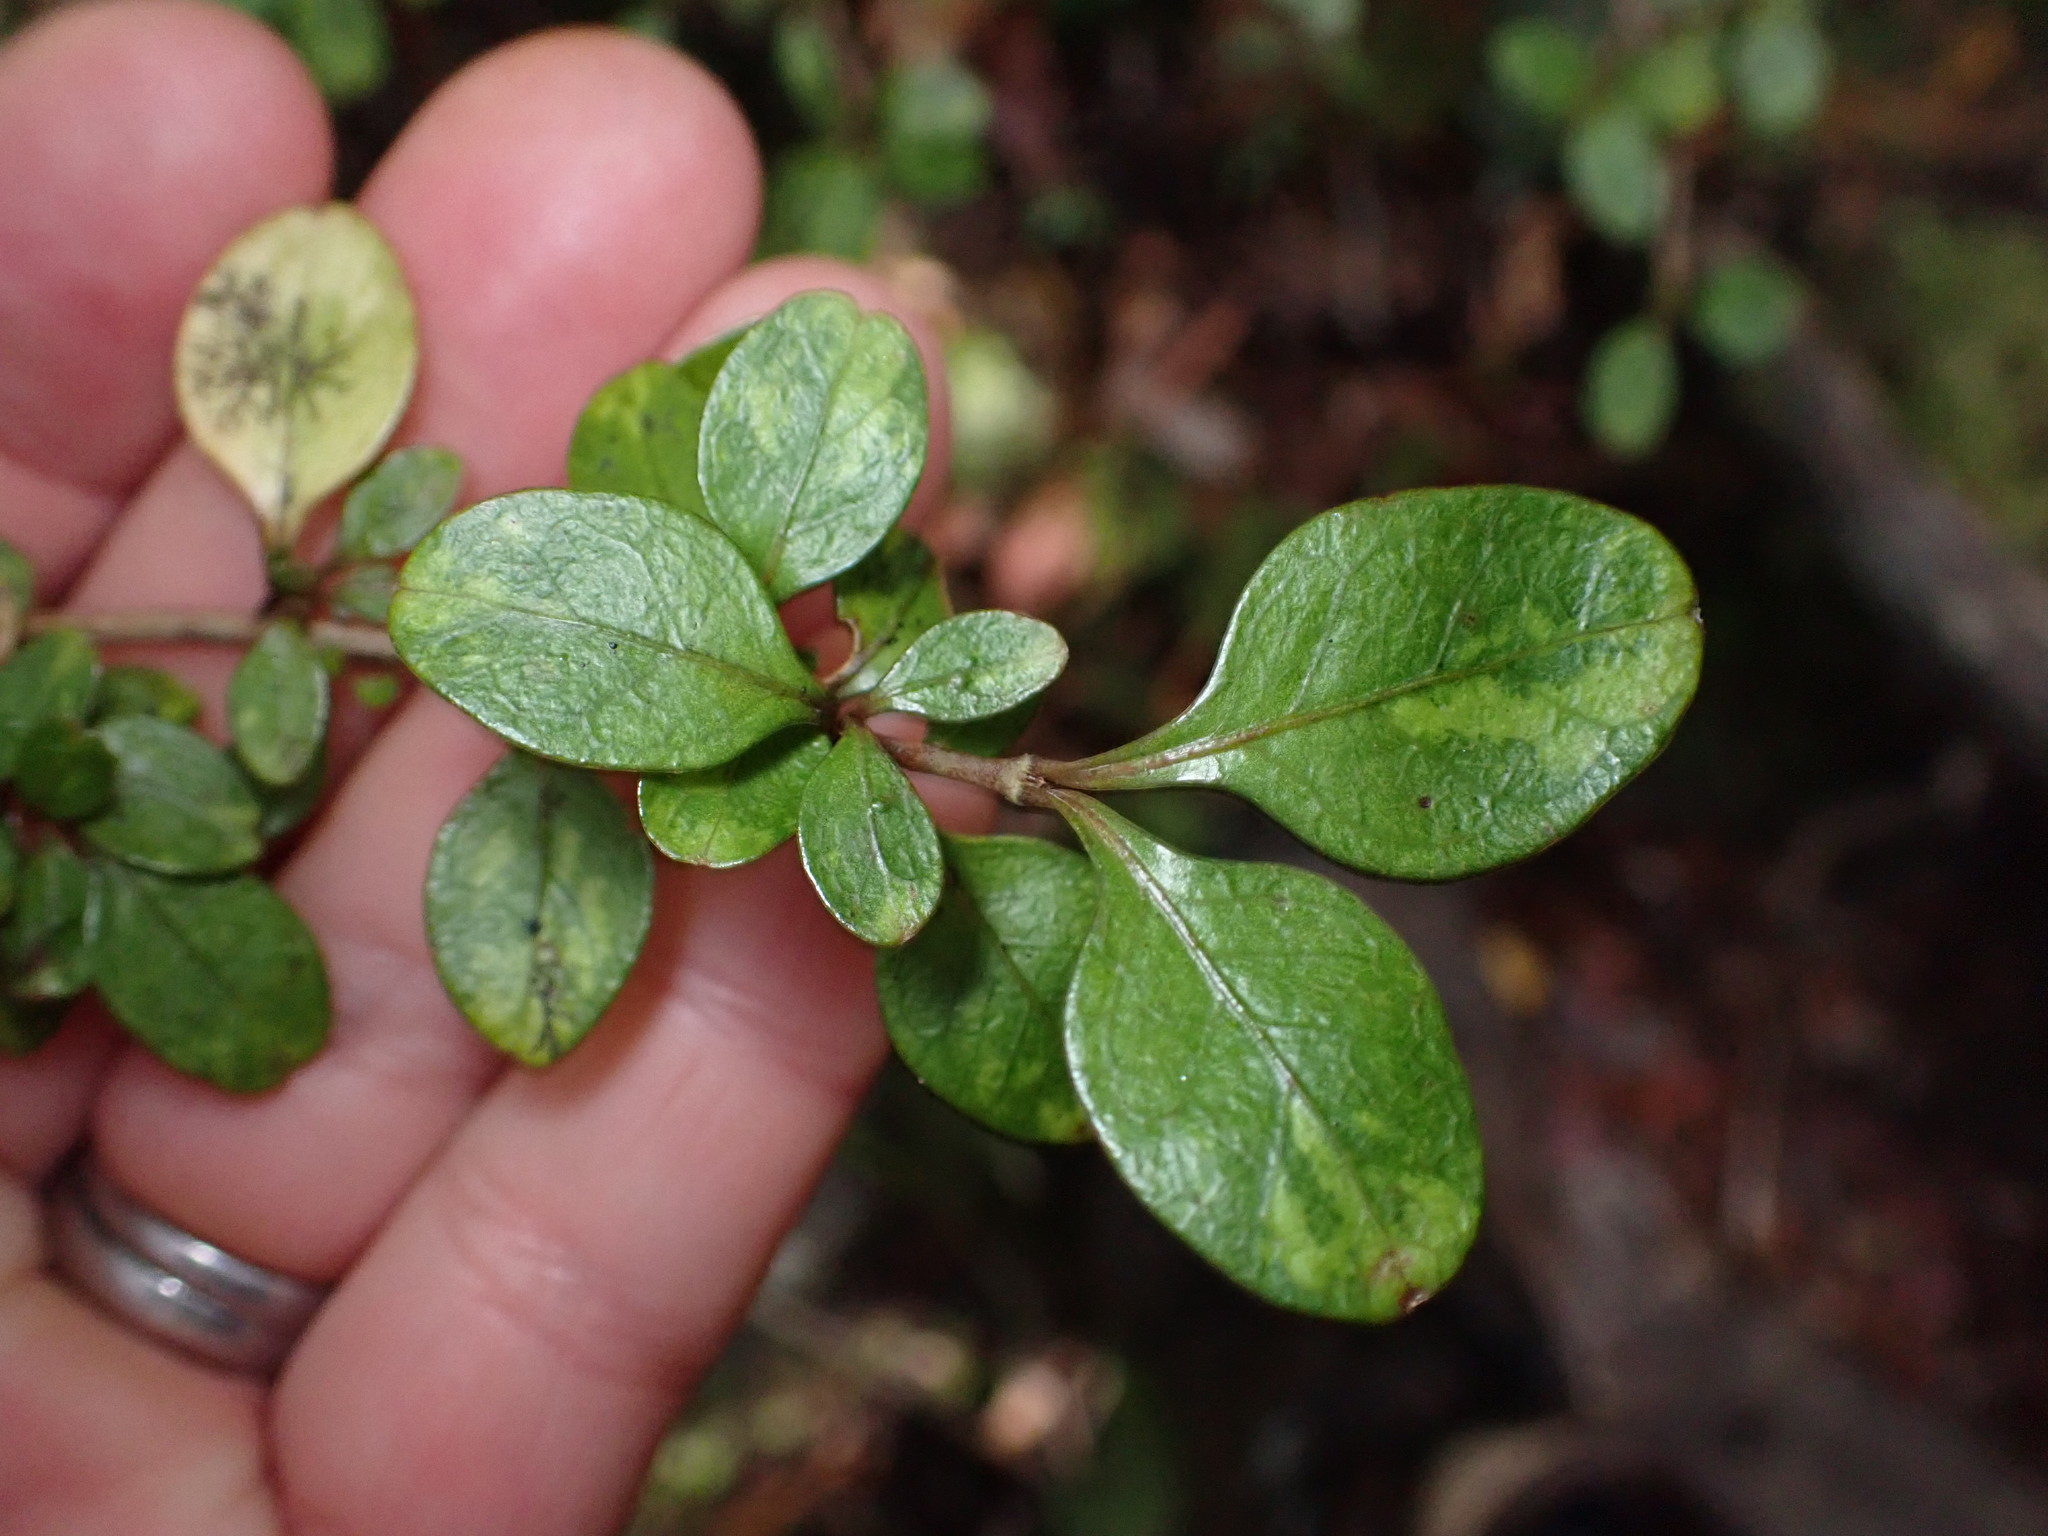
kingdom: Plantae
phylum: Tracheophyta
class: Magnoliopsida
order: Gentianales
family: Rubiaceae
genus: Coprosma
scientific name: Coprosma colensoi
